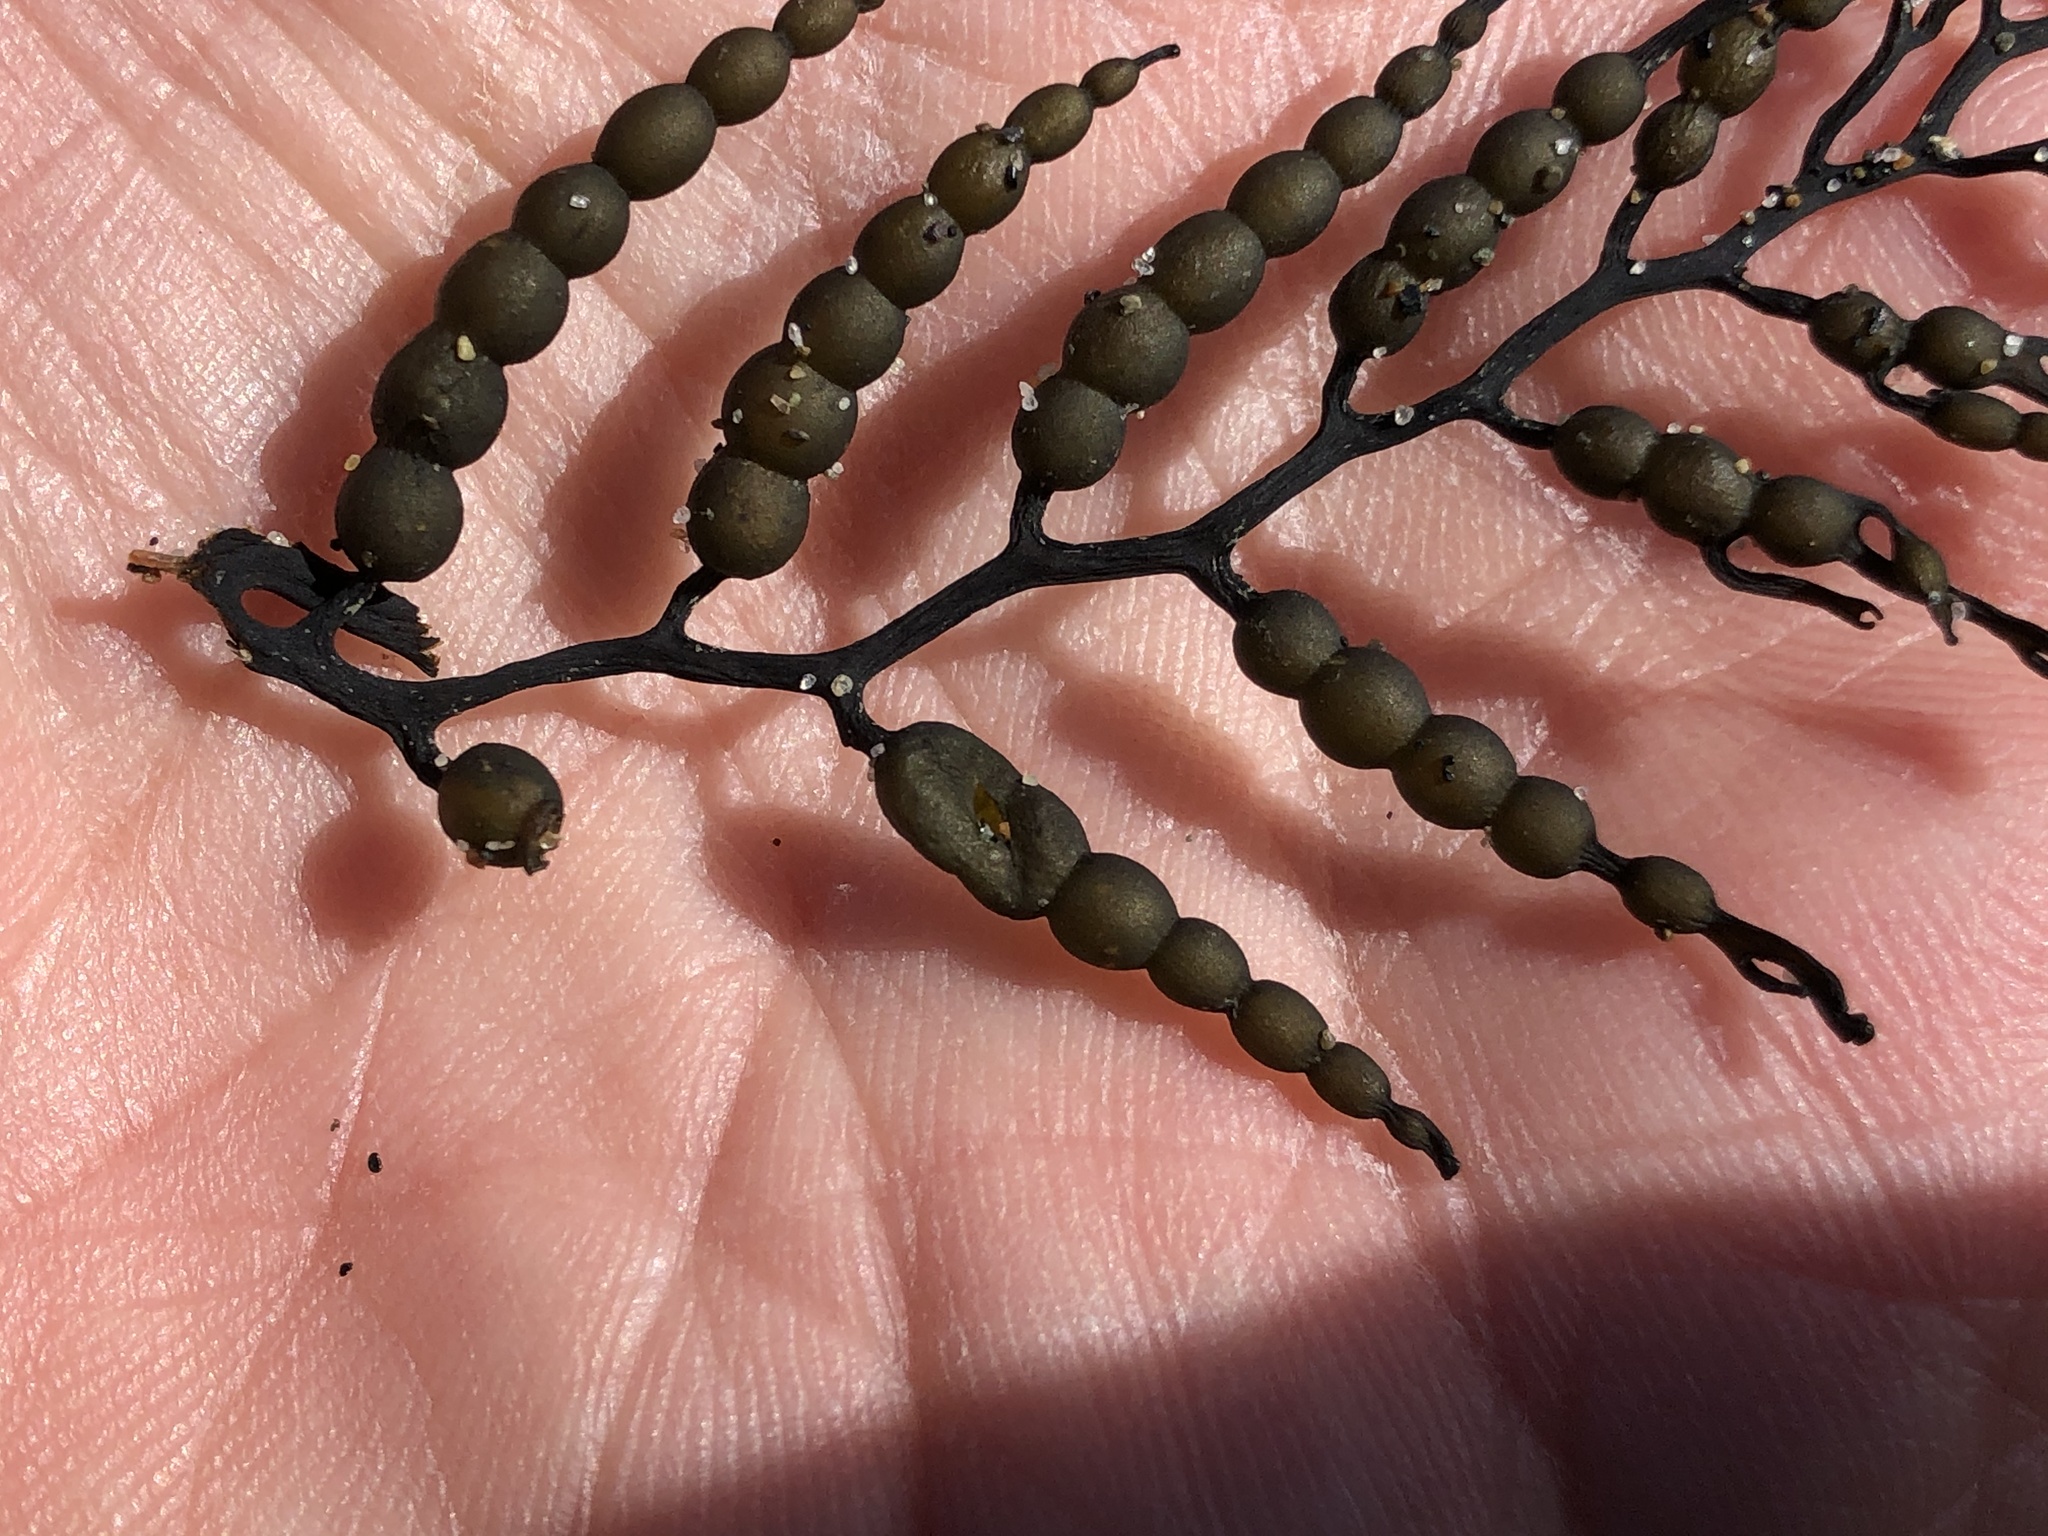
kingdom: Chromista
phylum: Ochrophyta
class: Phaeophyceae
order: Fucales
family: Sargassaceae
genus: Stephanocystis
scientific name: Stephanocystis
